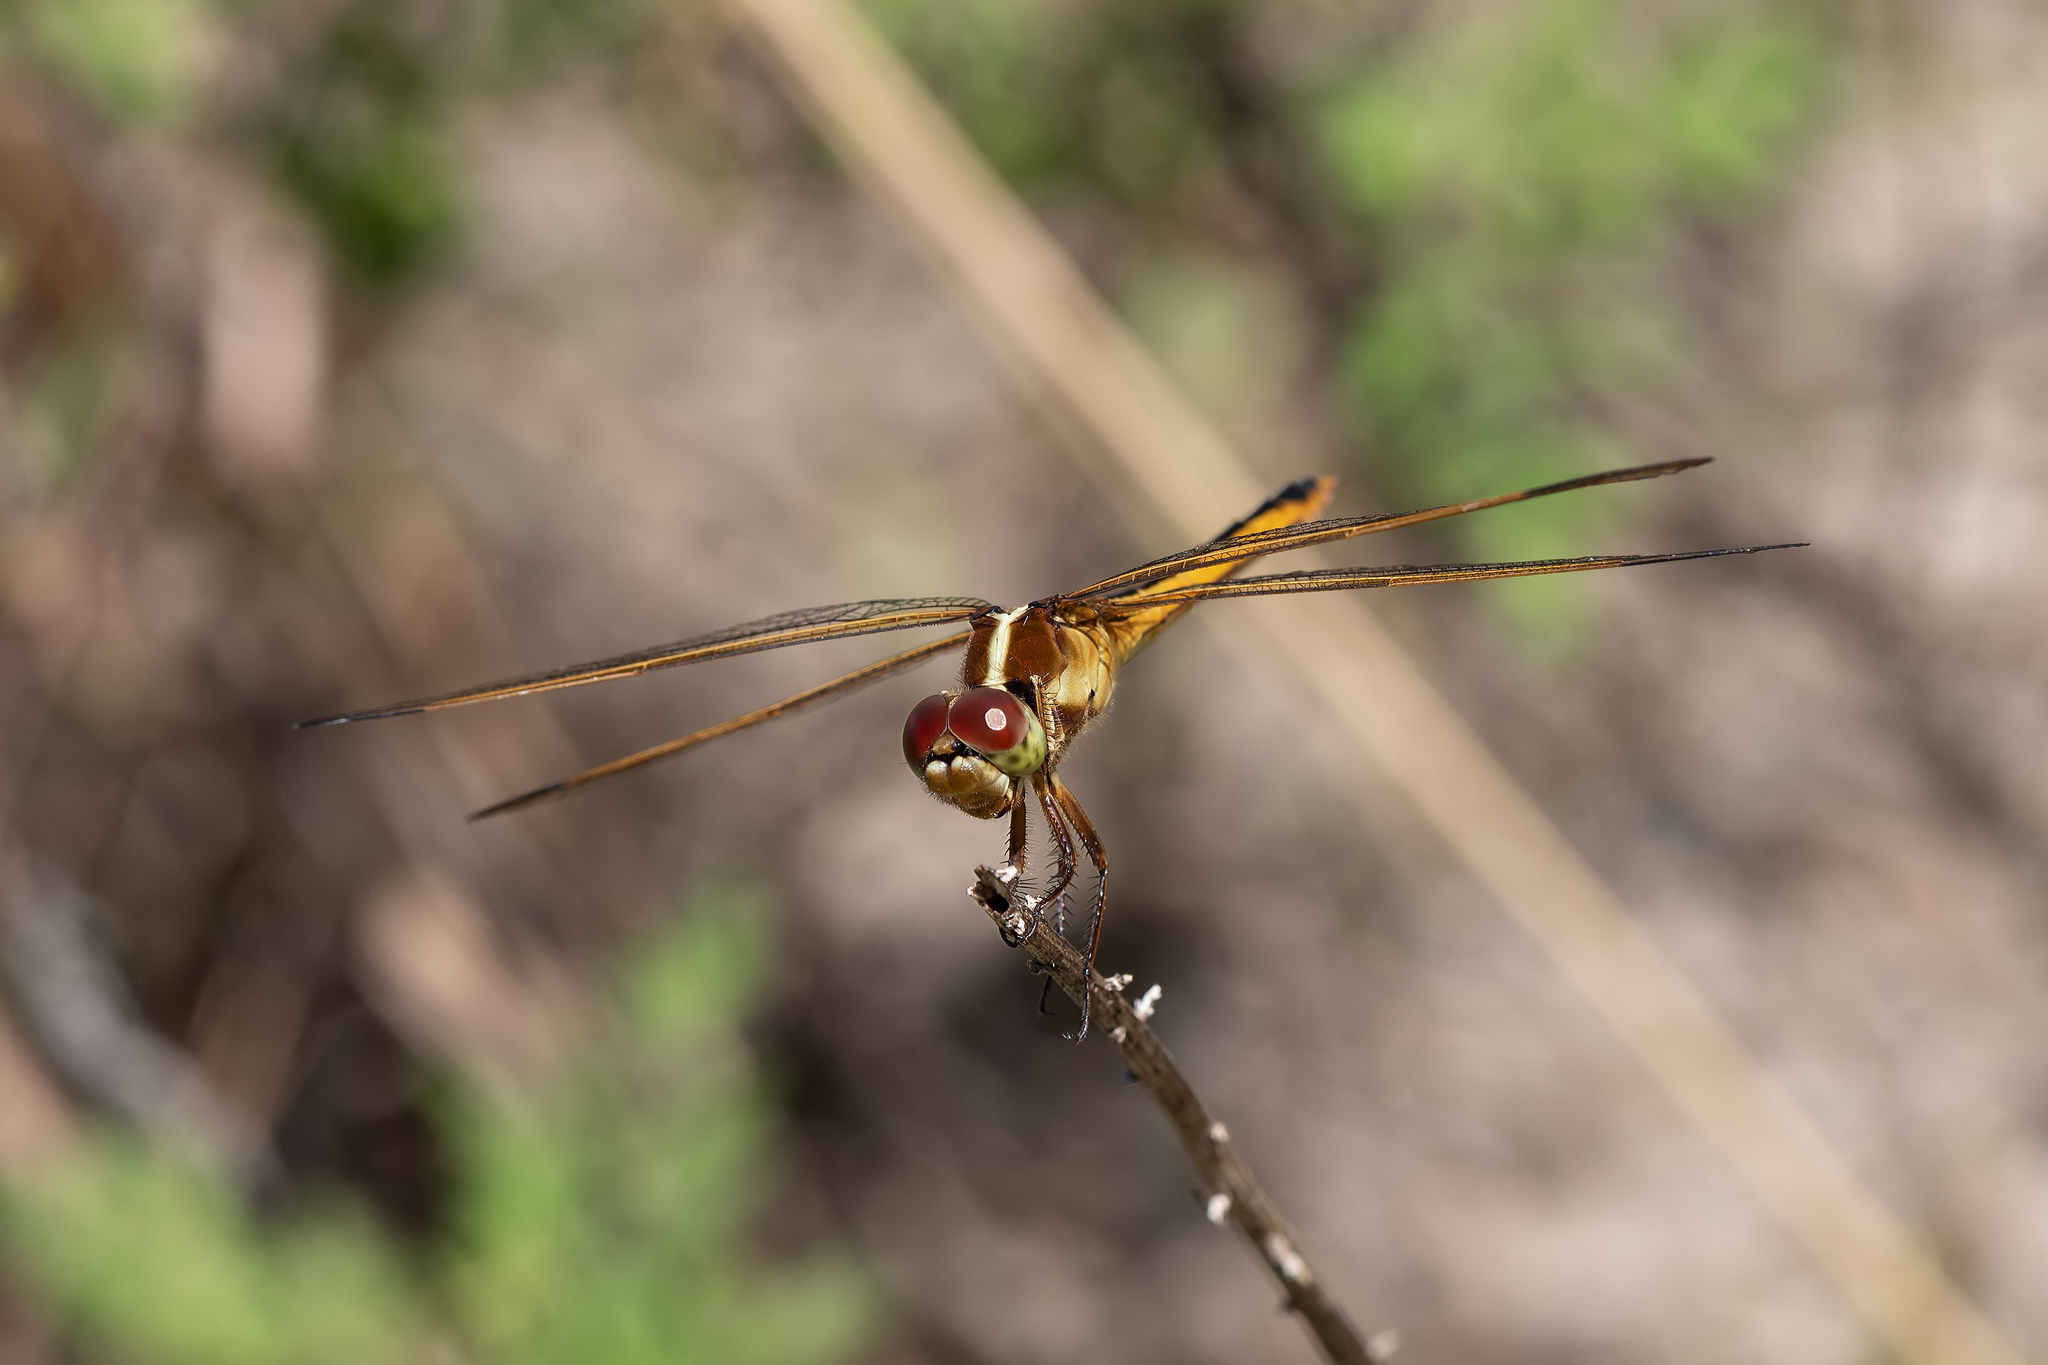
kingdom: Animalia
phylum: Arthropoda
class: Insecta
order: Odonata
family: Libellulidae
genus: Libellula
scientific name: Libellula needhami
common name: Needham's skimmer
